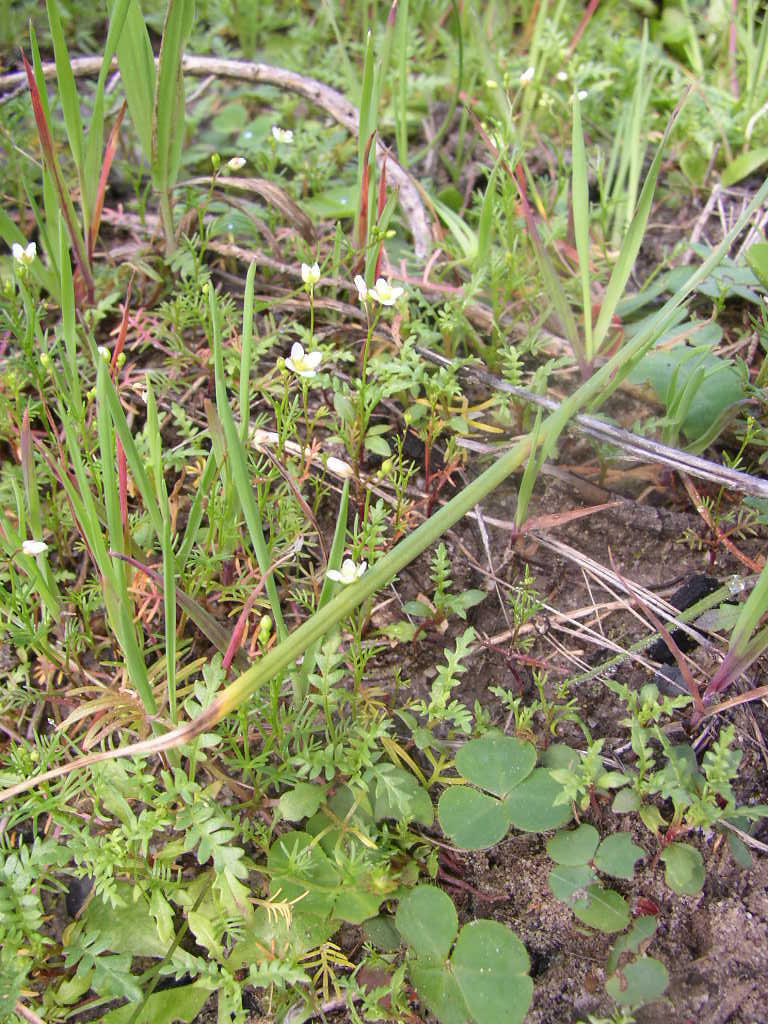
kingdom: Plantae
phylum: Tracheophyta
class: Magnoliopsida
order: Brassicales
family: Brassicaceae
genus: Heliophila
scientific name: Heliophila pendula
